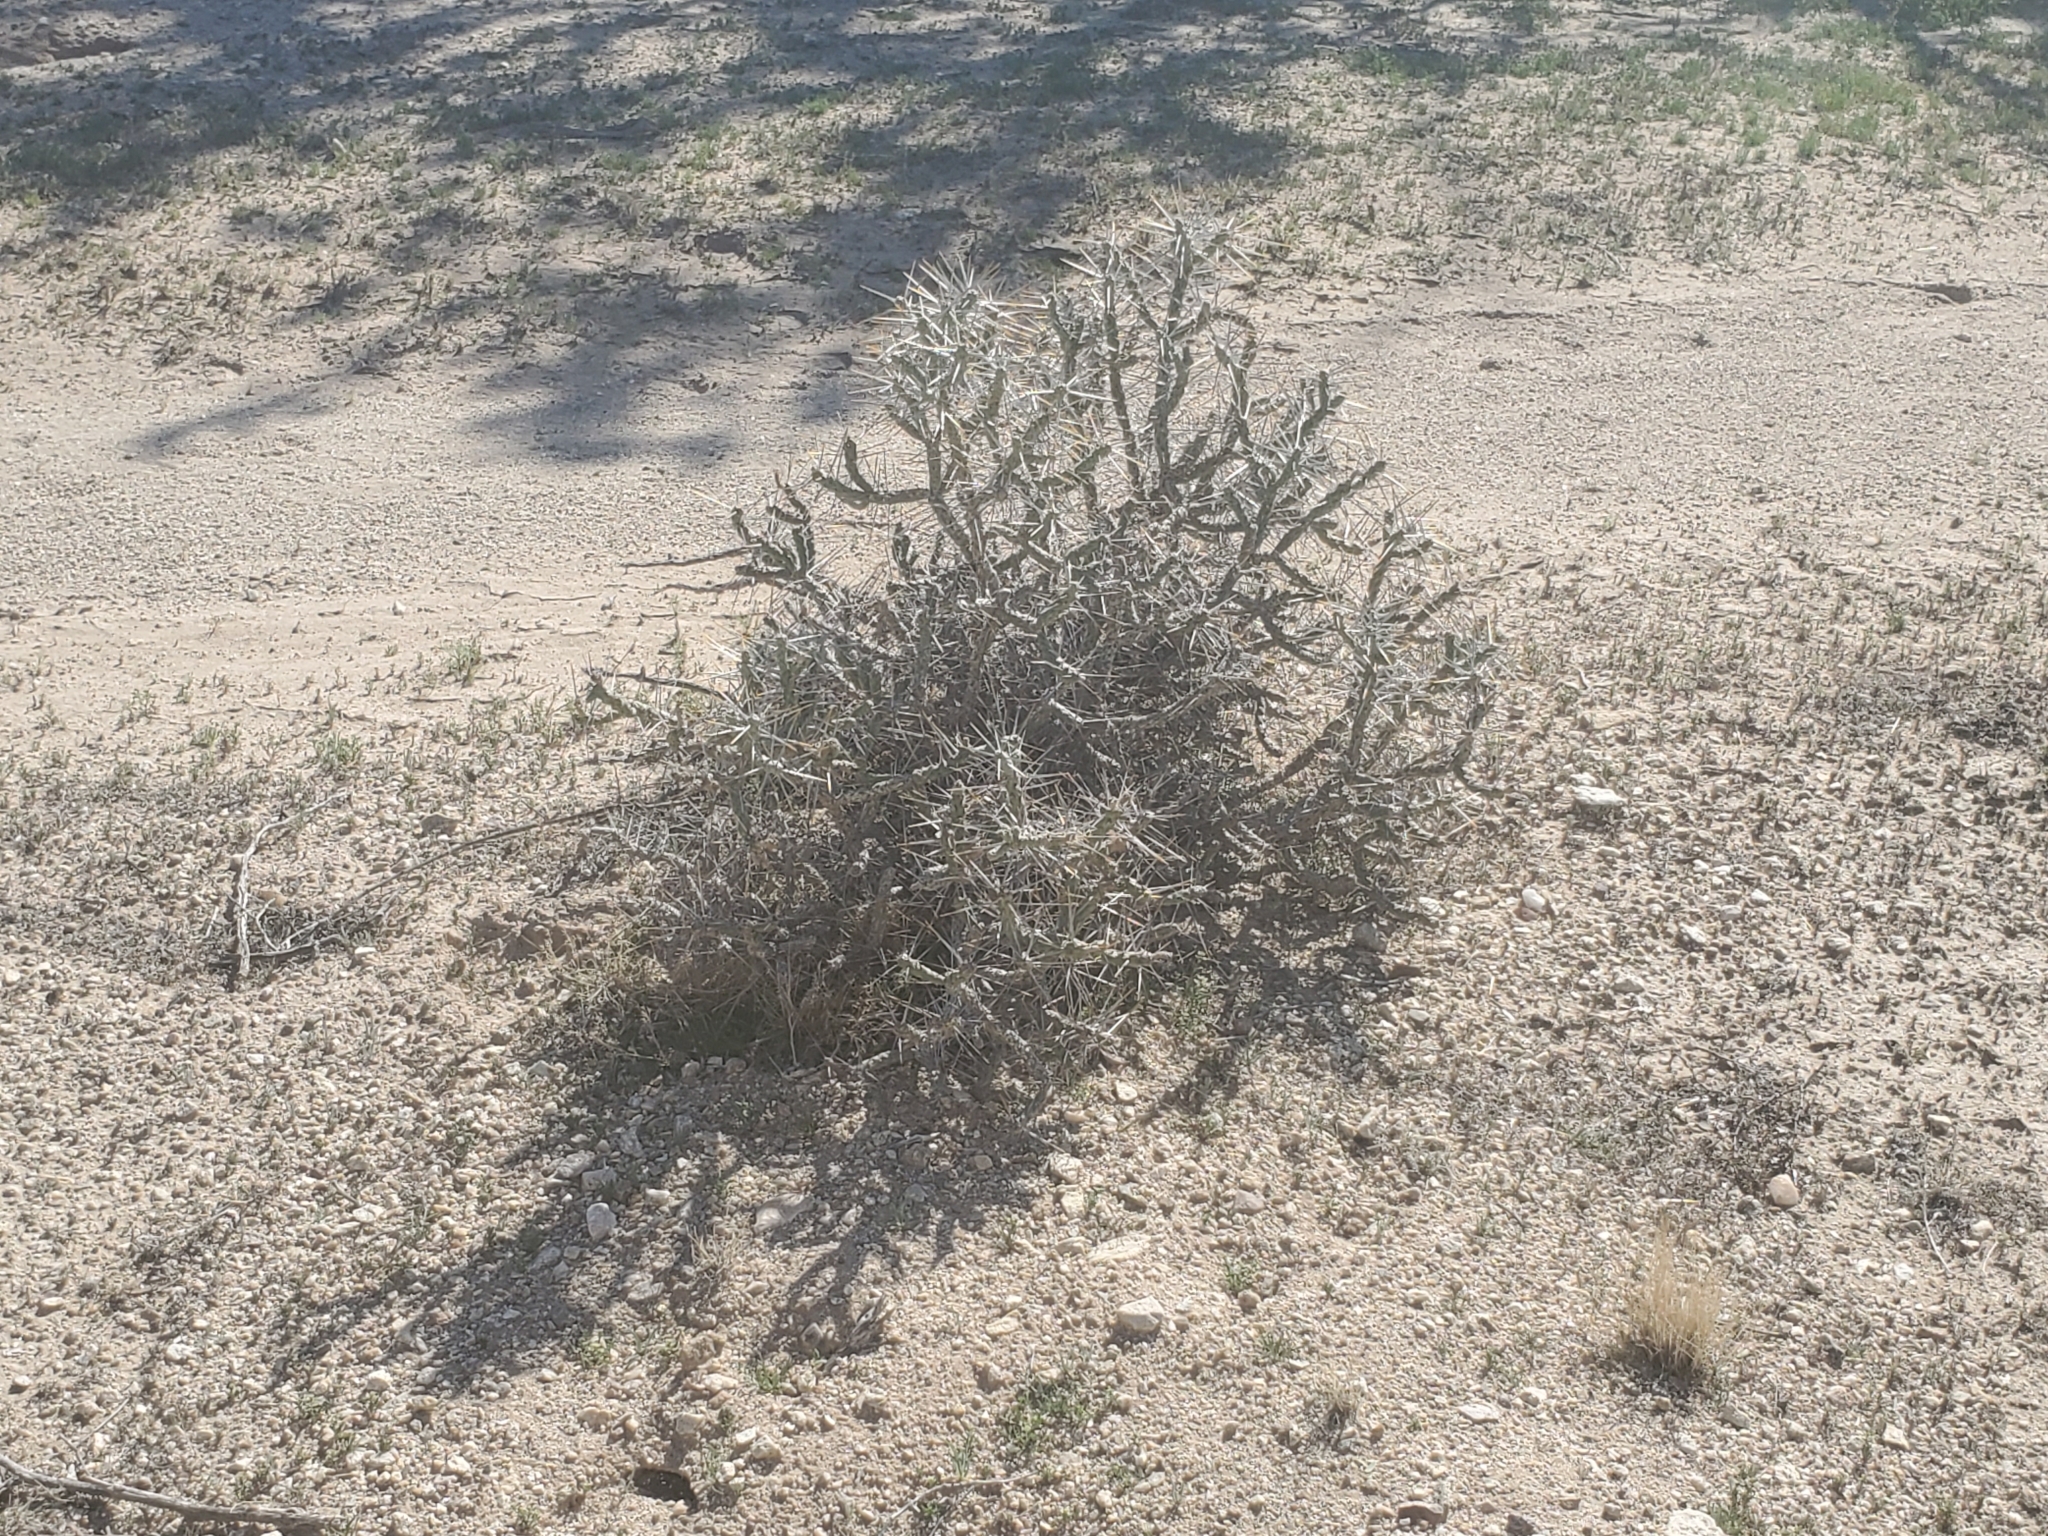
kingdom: Plantae
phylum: Tracheophyta
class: Magnoliopsida
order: Caryophyllales
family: Cactaceae
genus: Cylindropuntia
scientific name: Cylindropuntia ramosissima
